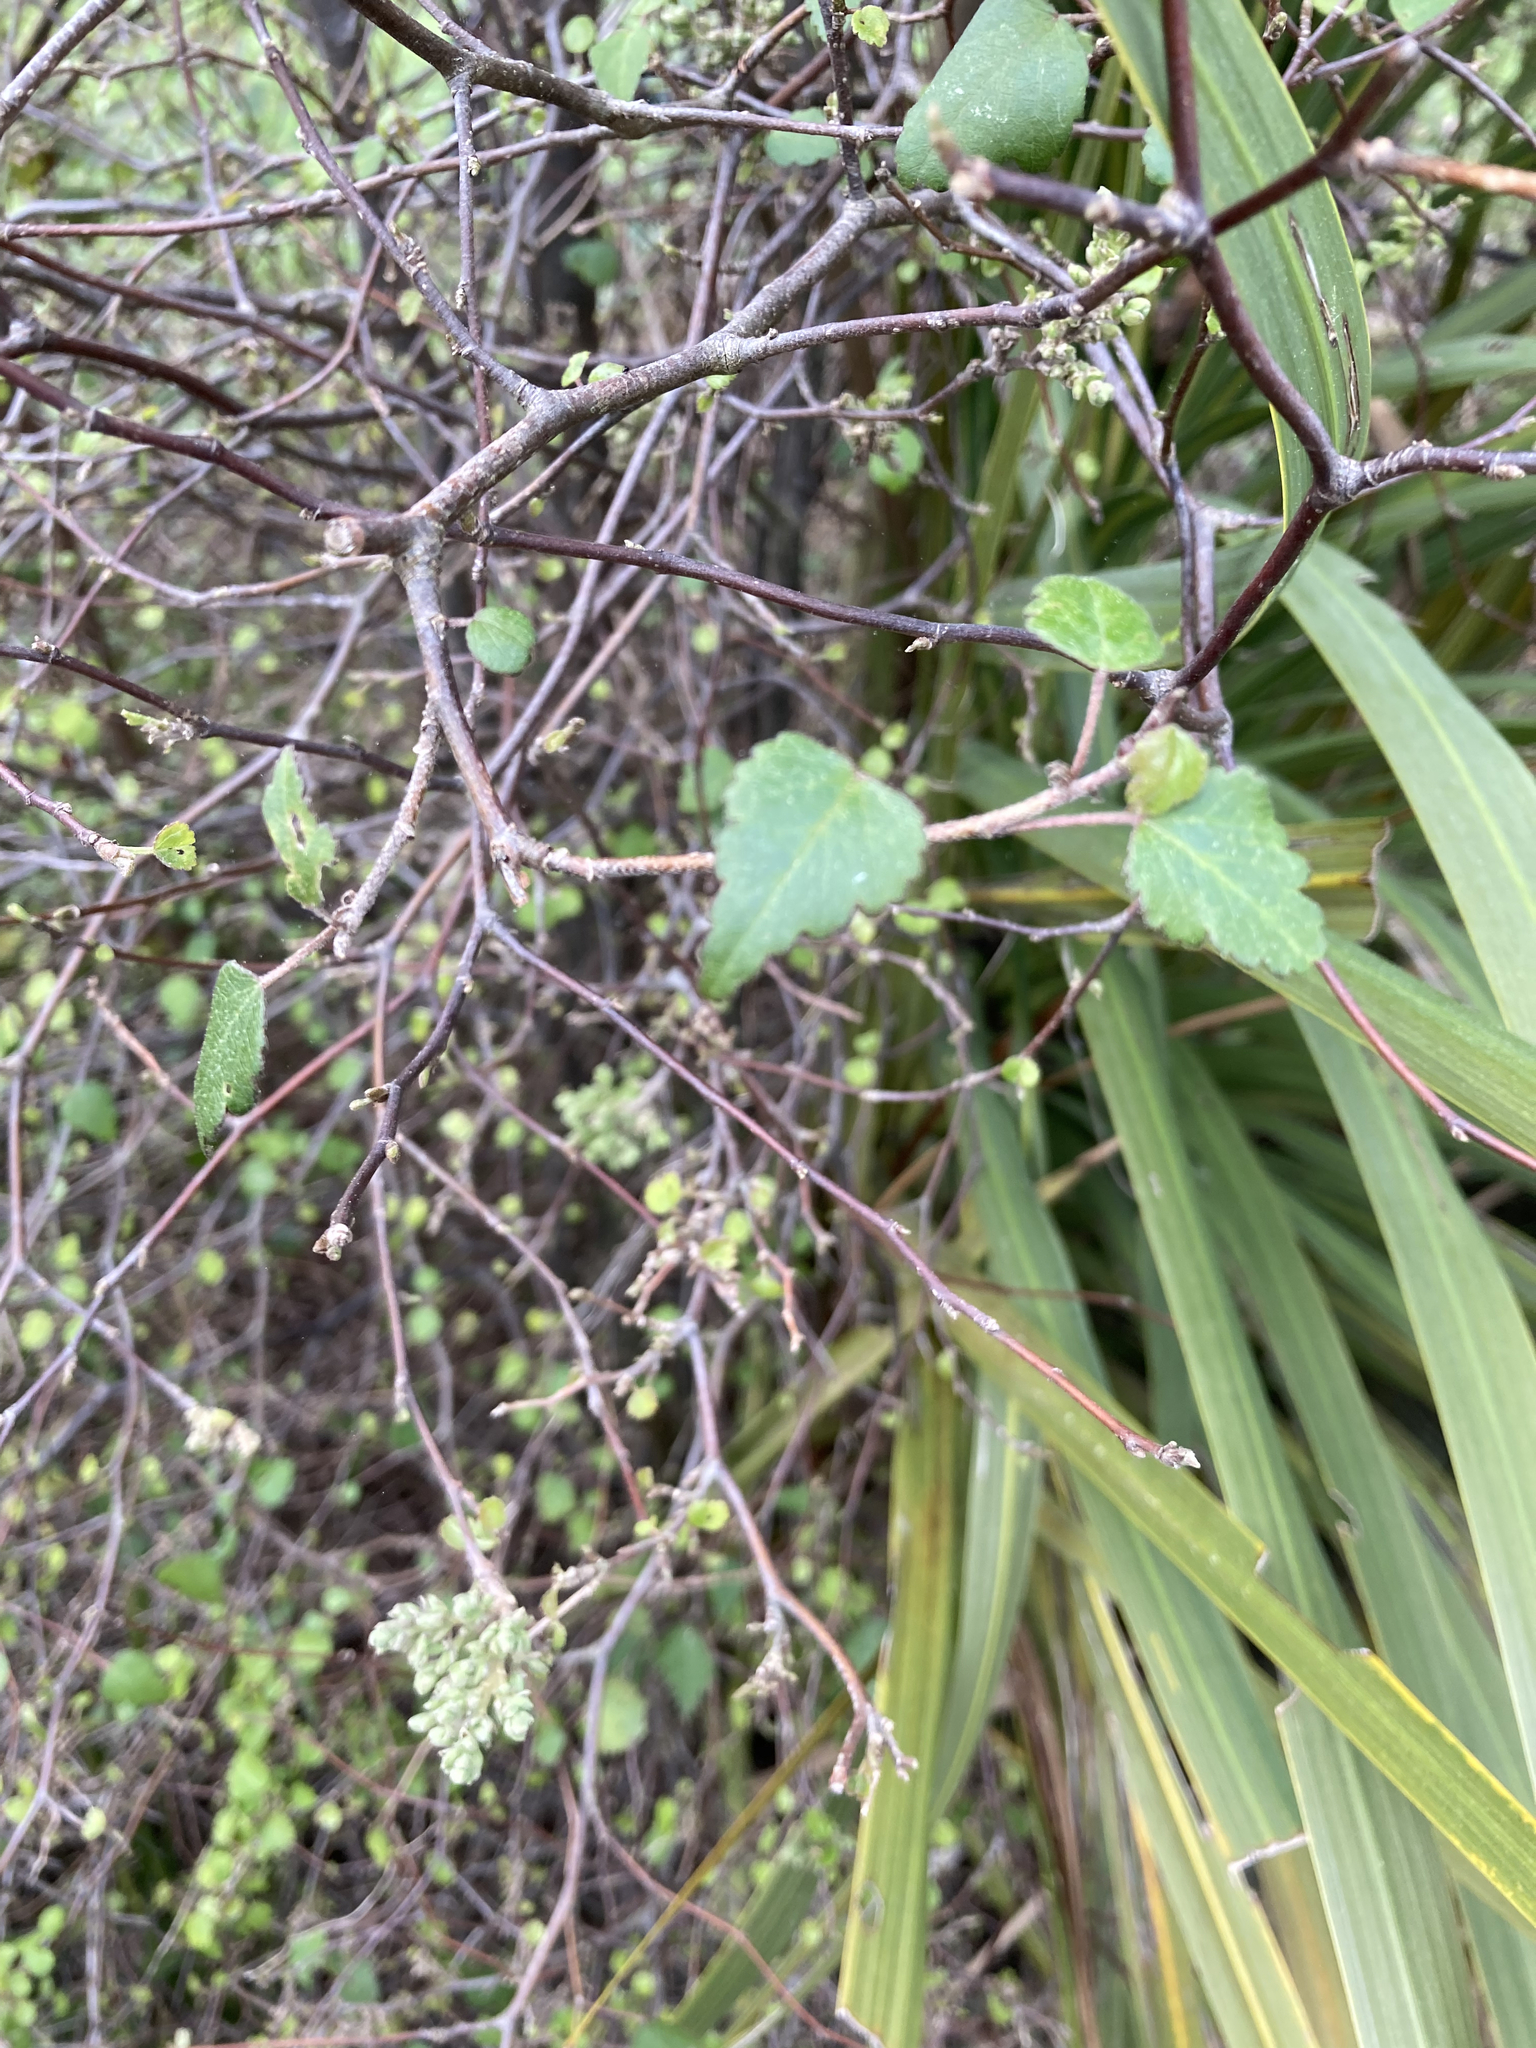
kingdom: Plantae
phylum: Tracheophyta
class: Magnoliopsida
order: Malvales
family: Malvaceae
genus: Plagianthus
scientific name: Plagianthus regius
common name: Manatu
